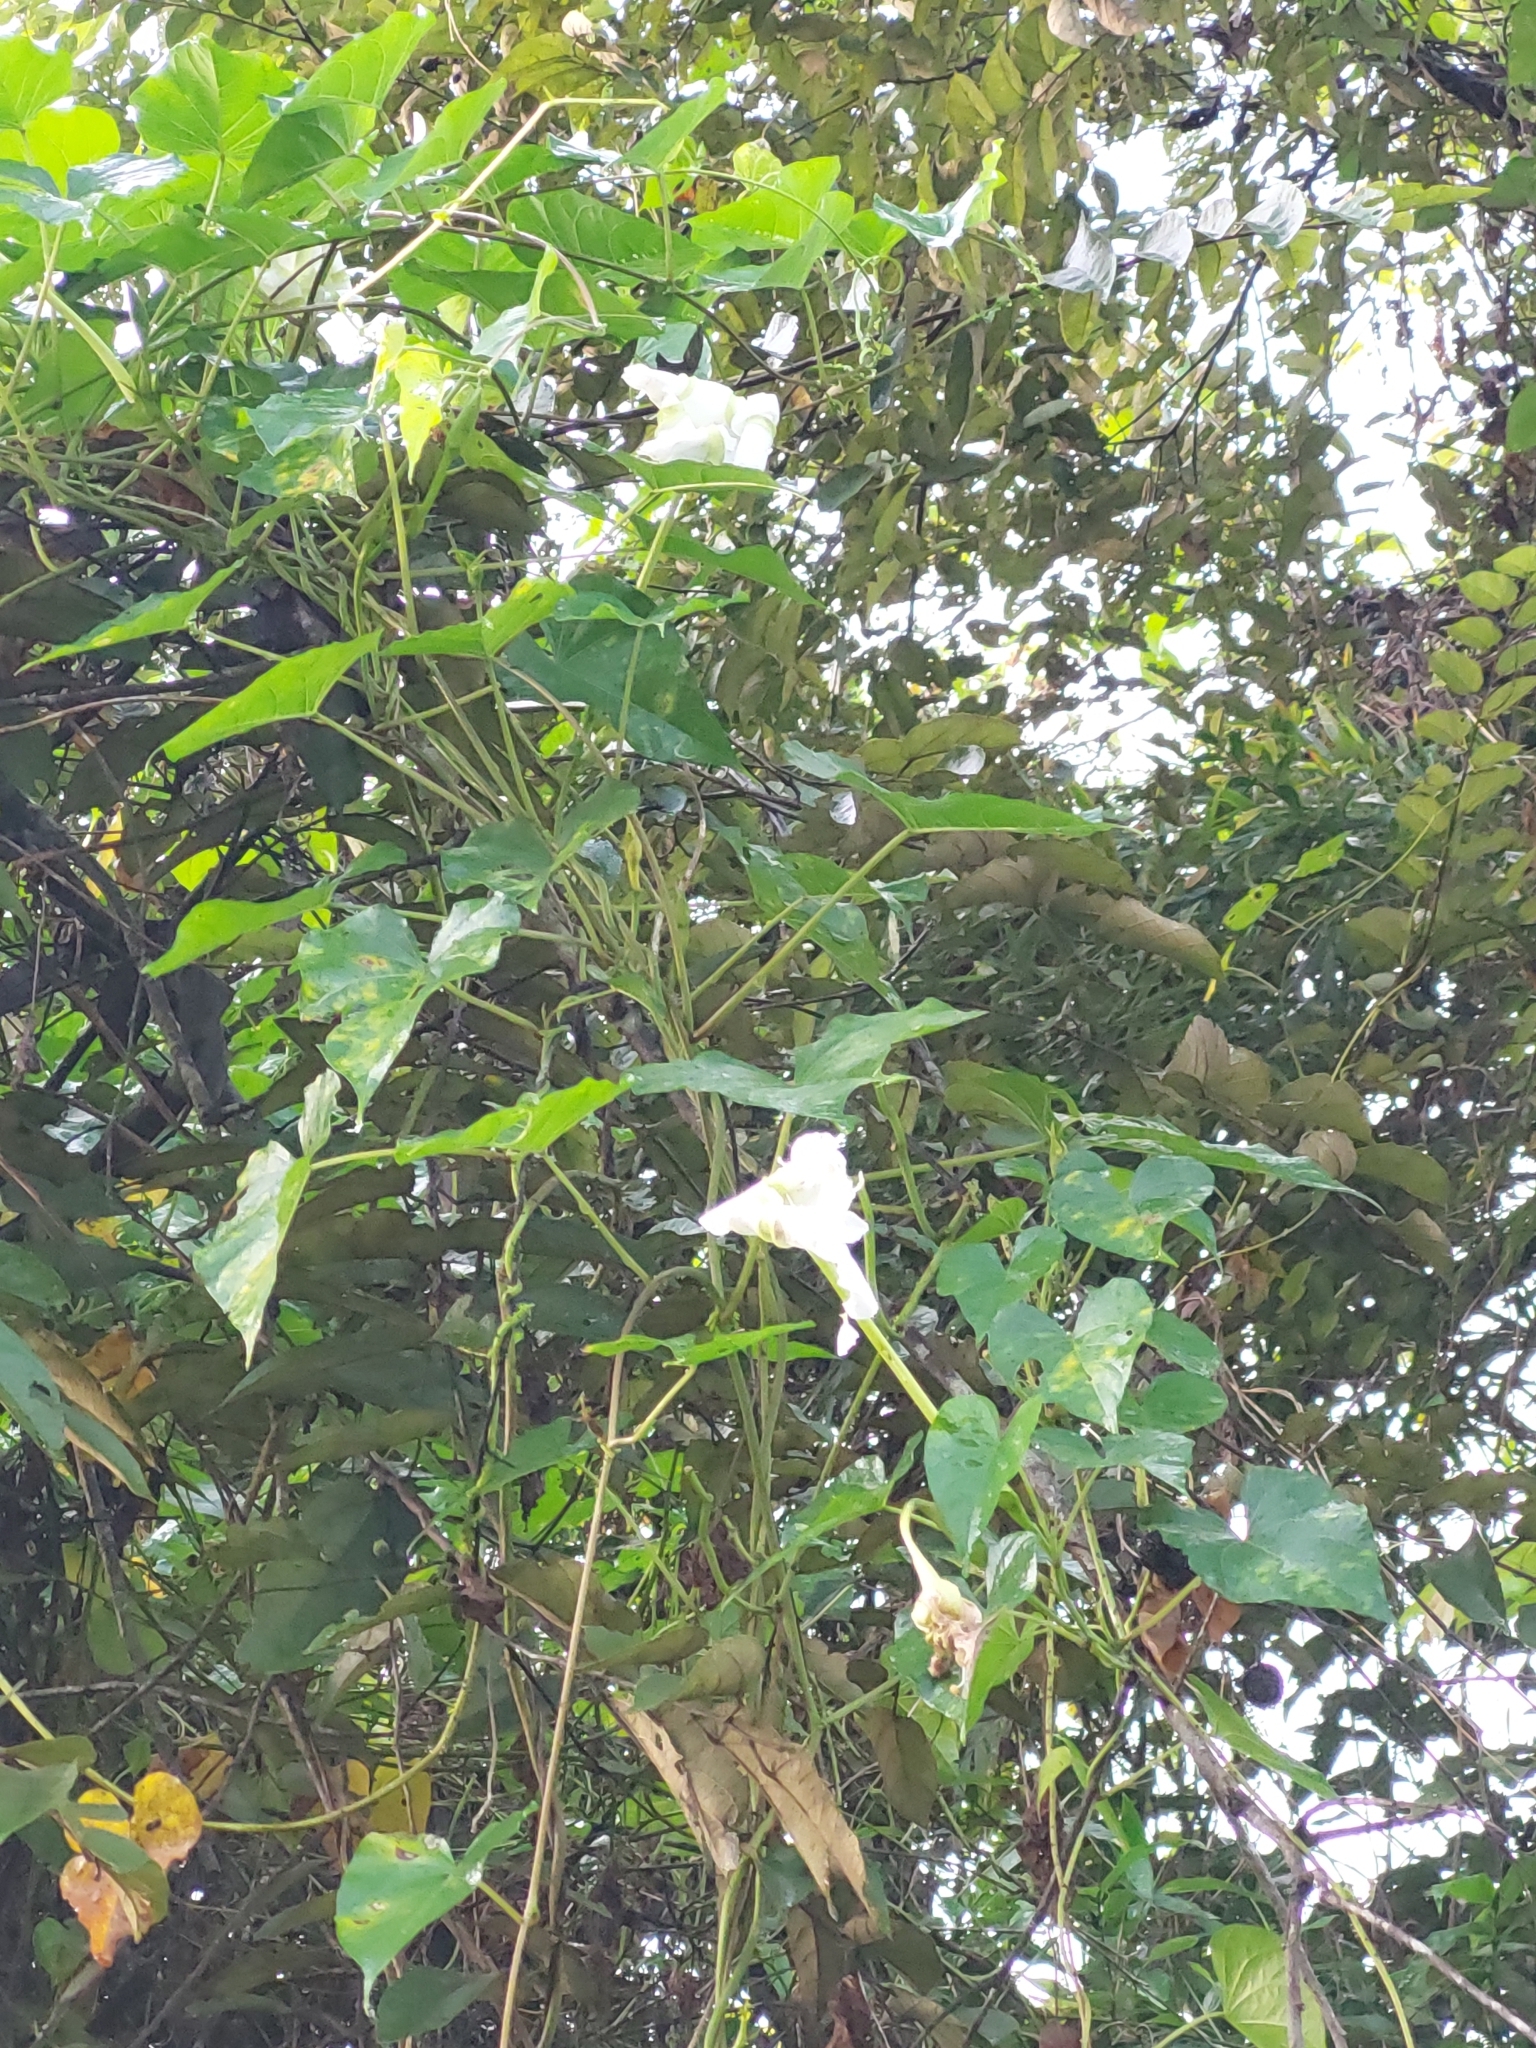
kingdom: Plantae
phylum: Tracheophyta
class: Magnoliopsida
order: Solanales
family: Convolvulaceae
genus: Ipomoea
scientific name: Ipomoea alba
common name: Moonflower
